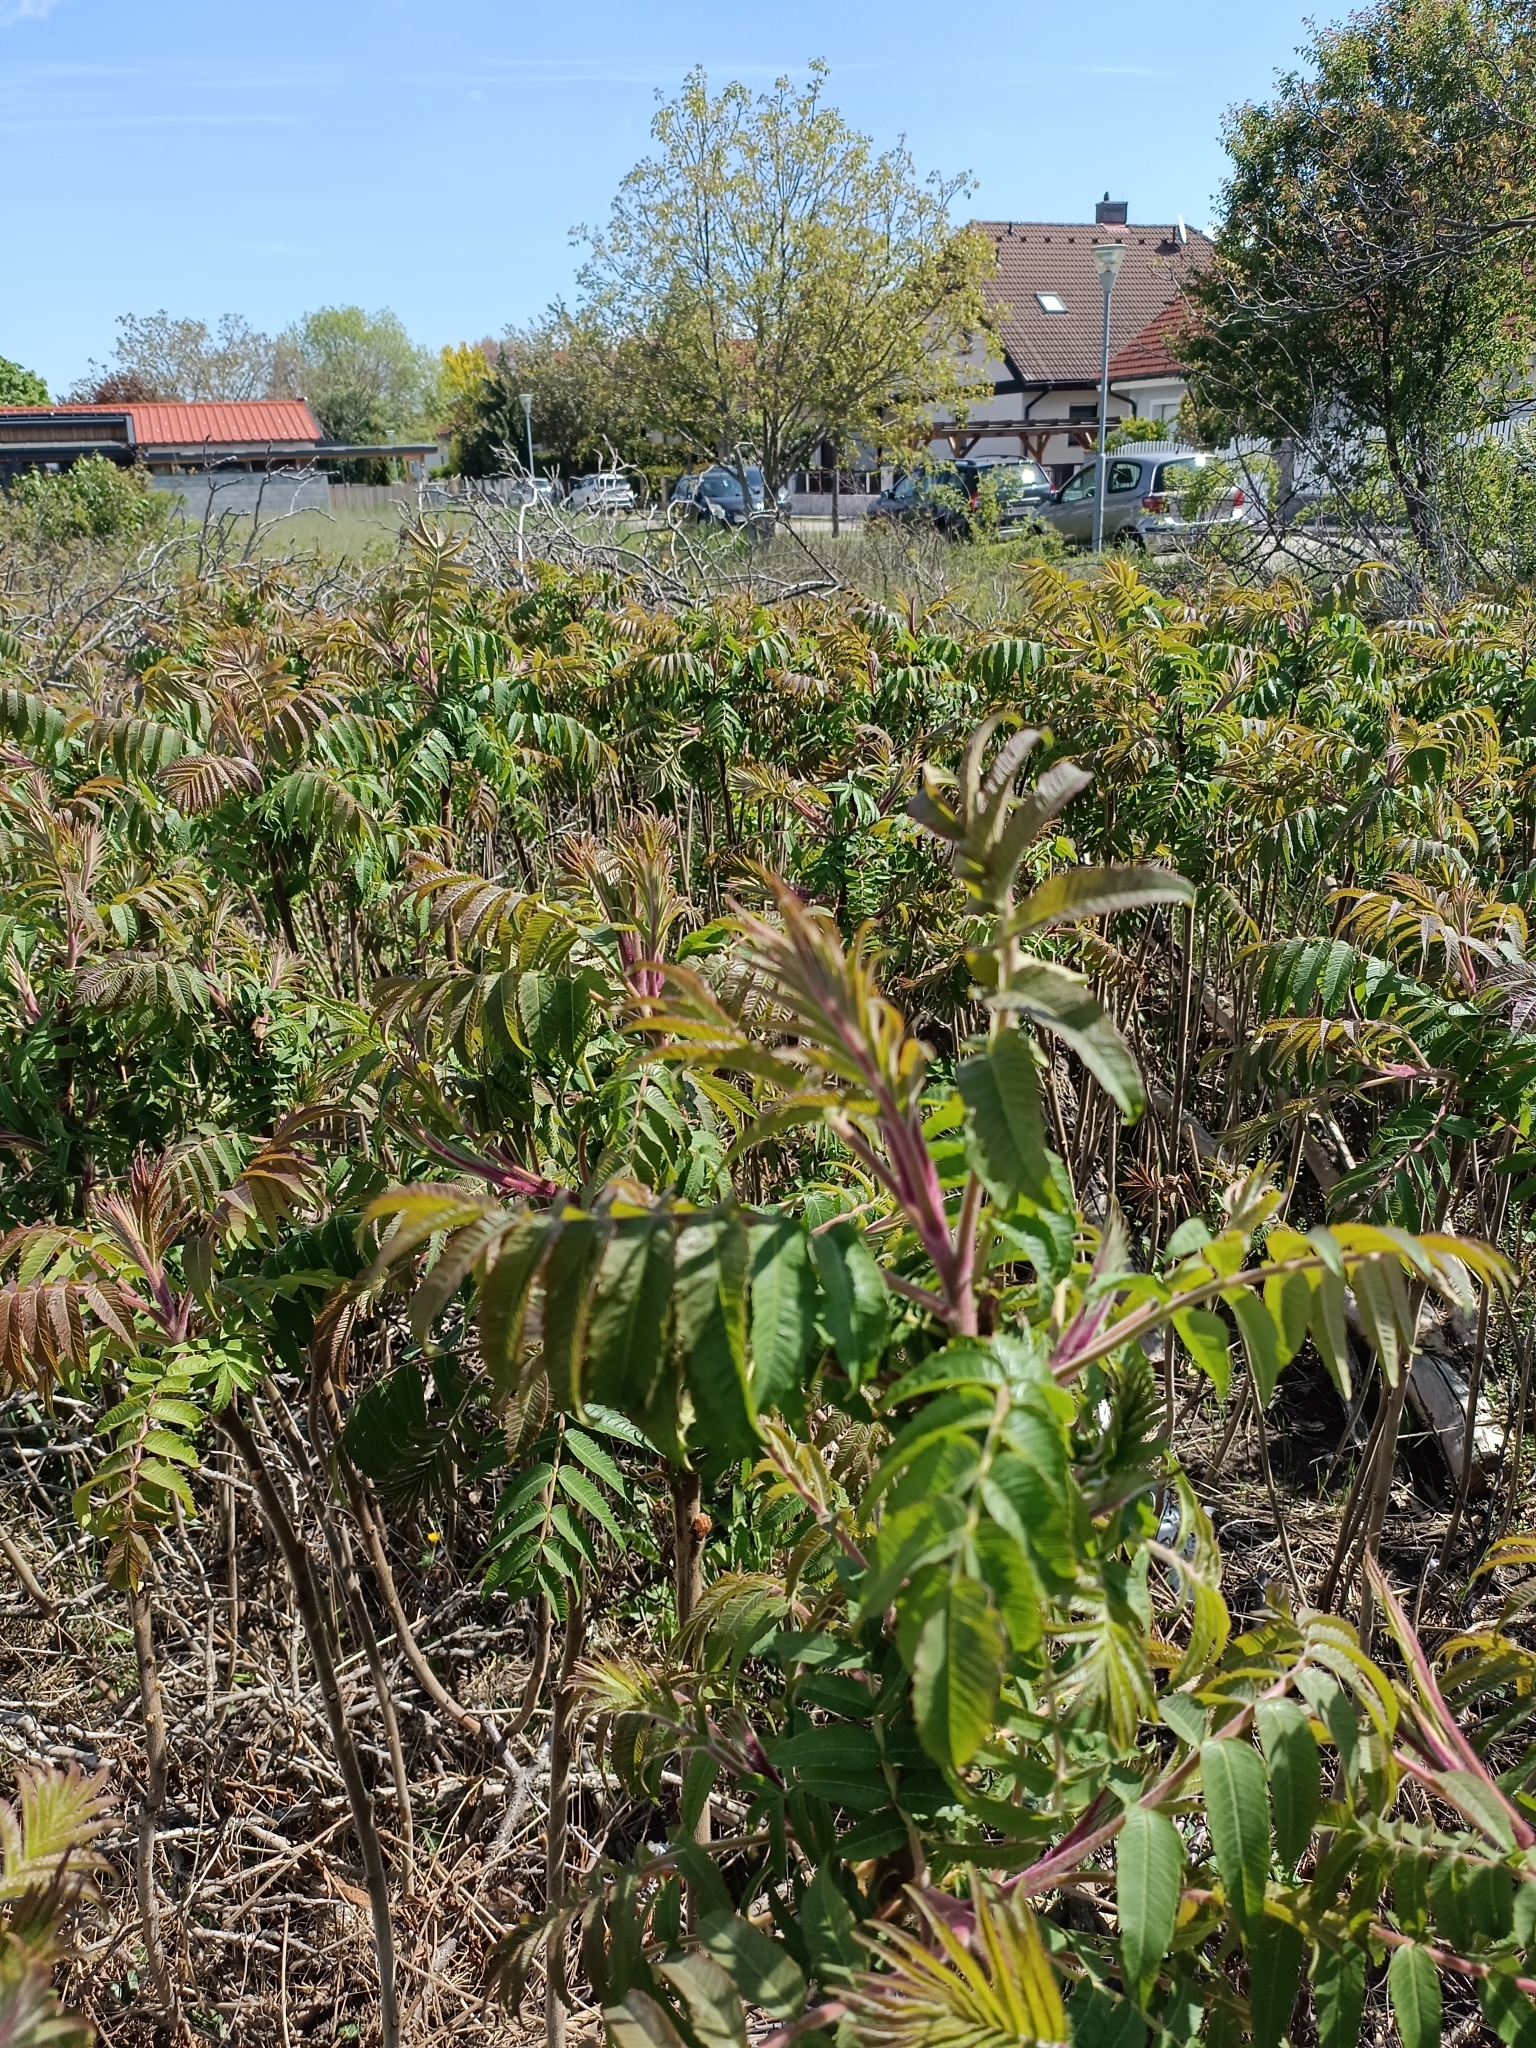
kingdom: Plantae
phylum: Tracheophyta
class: Magnoliopsida
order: Sapindales
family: Anacardiaceae
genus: Rhus
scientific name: Rhus typhina
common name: Staghorn sumac
